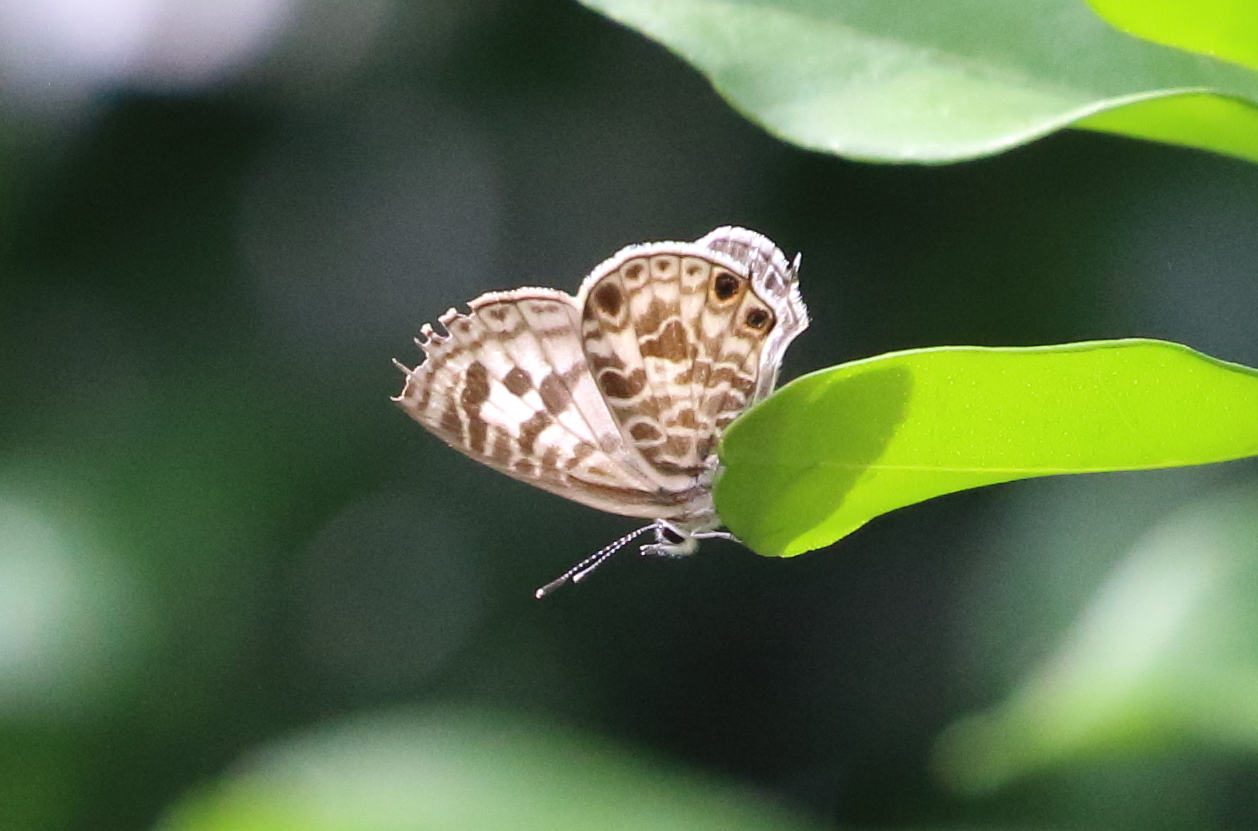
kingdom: Animalia
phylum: Arthropoda
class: Insecta
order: Lepidoptera
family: Lycaenidae
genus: Leptotes
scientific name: Leptotes plinius
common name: Zebra blue
